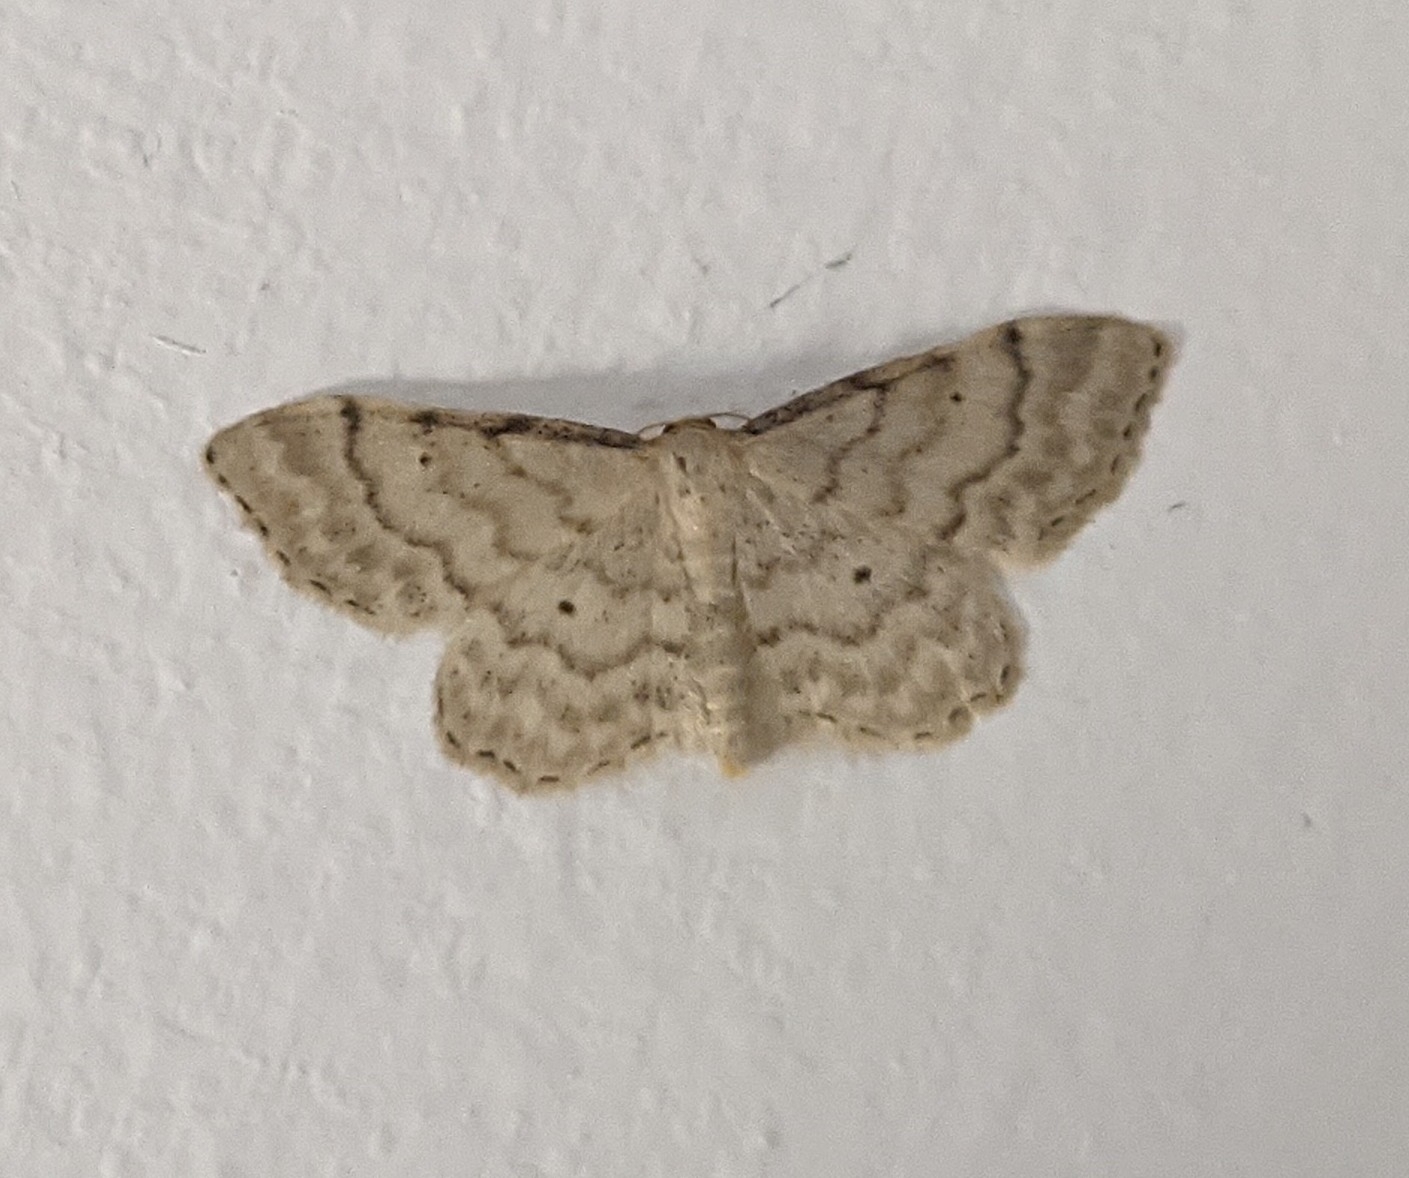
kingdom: Animalia
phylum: Arthropoda
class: Insecta
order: Lepidoptera
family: Geometridae
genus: Idaea
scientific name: Idaea fuscovenosa
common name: Dwarf cream wave
